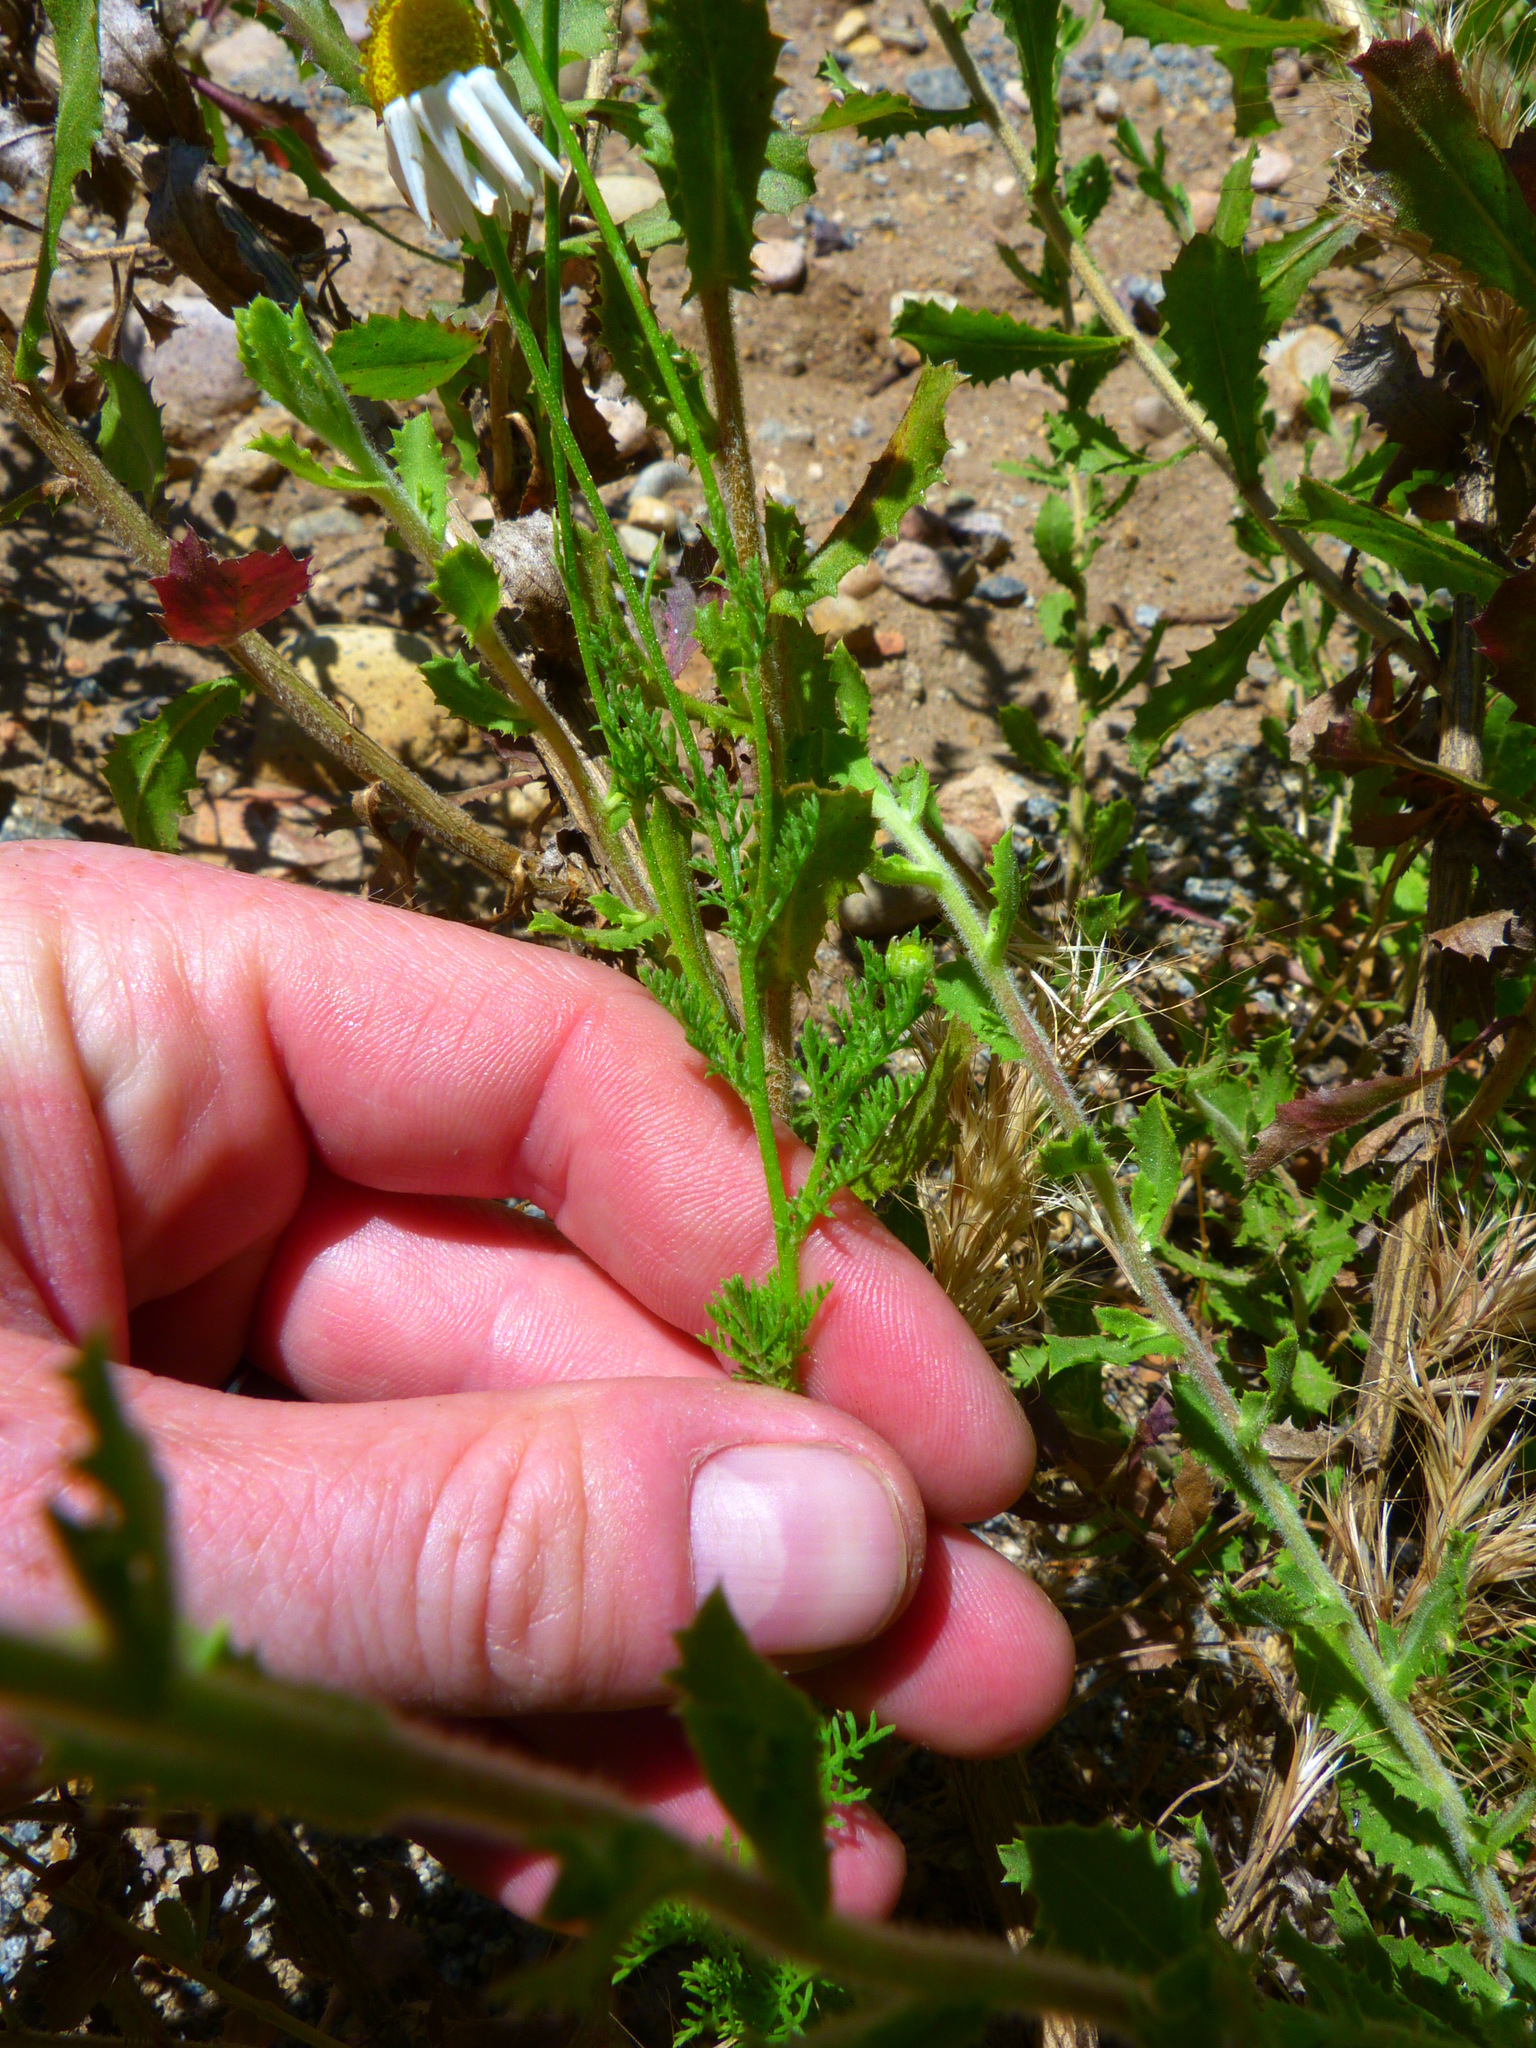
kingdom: Plantae
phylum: Tracheophyta
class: Magnoliopsida
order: Asterales
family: Asteraceae
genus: Anthemis
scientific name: Anthemis cotula
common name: Stinking chamomile
